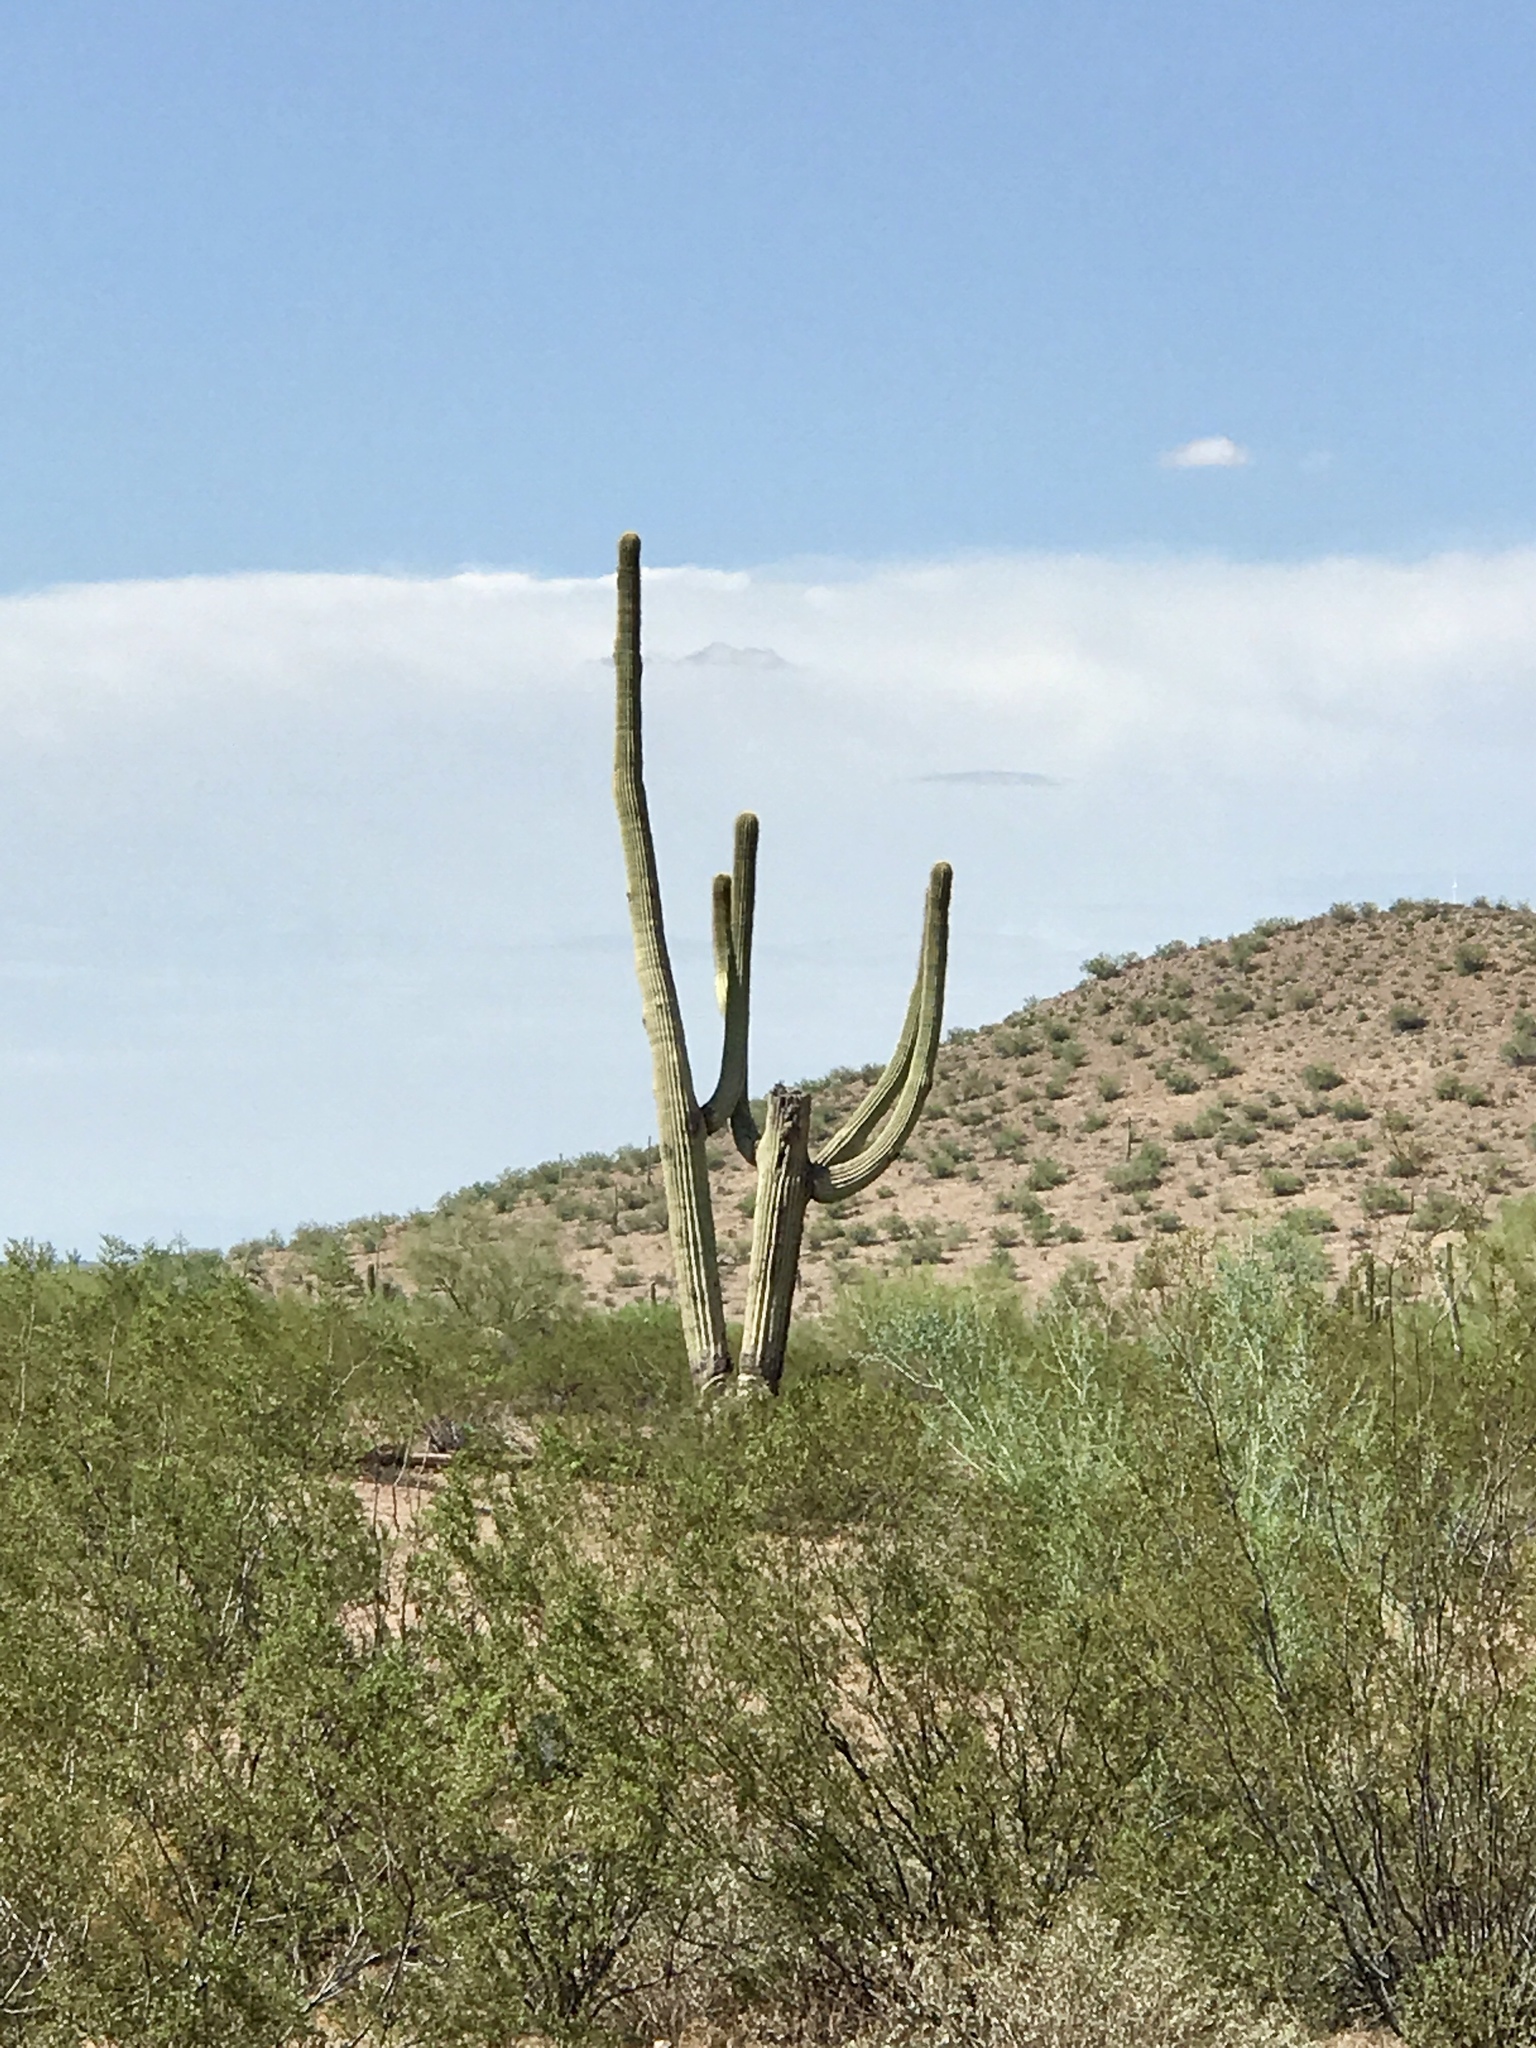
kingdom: Plantae
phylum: Tracheophyta
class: Magnoliopsida
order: Caryophyllales
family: Cactaceae
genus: Carnegiea
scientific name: Carnegiea gigantea
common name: Saguaro
